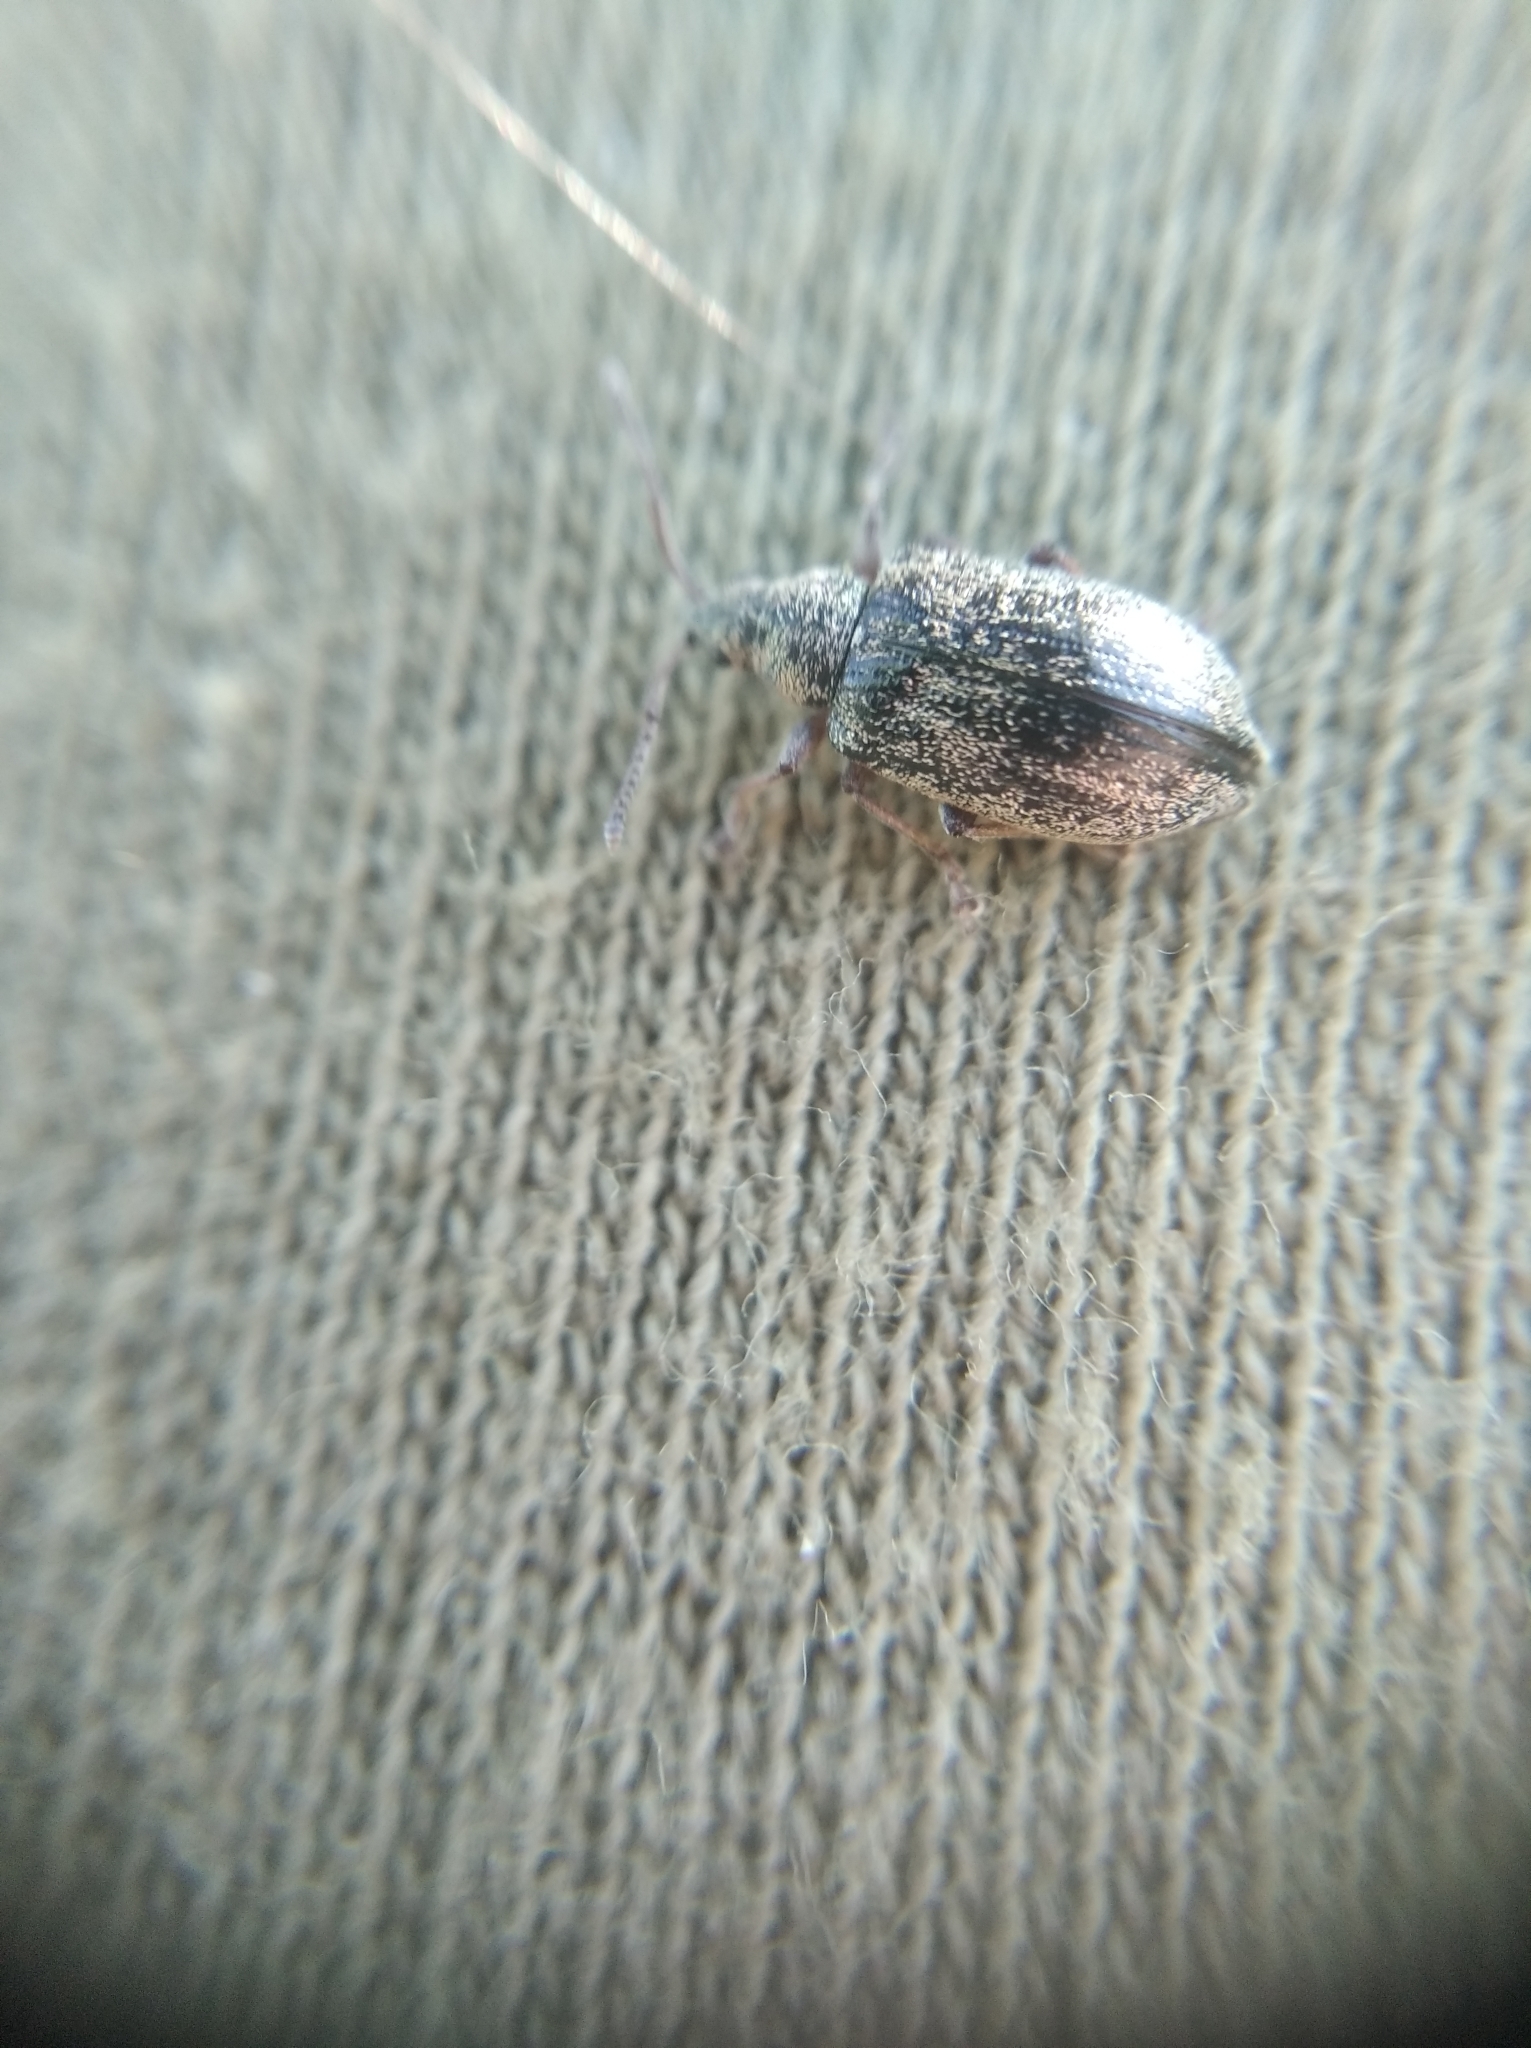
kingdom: Animalia
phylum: Arthropoda
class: Insecta
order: Coleoptera
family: Curculionidae
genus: Phyllobius
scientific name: Phyllobius pyri
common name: Common leaf weevil
